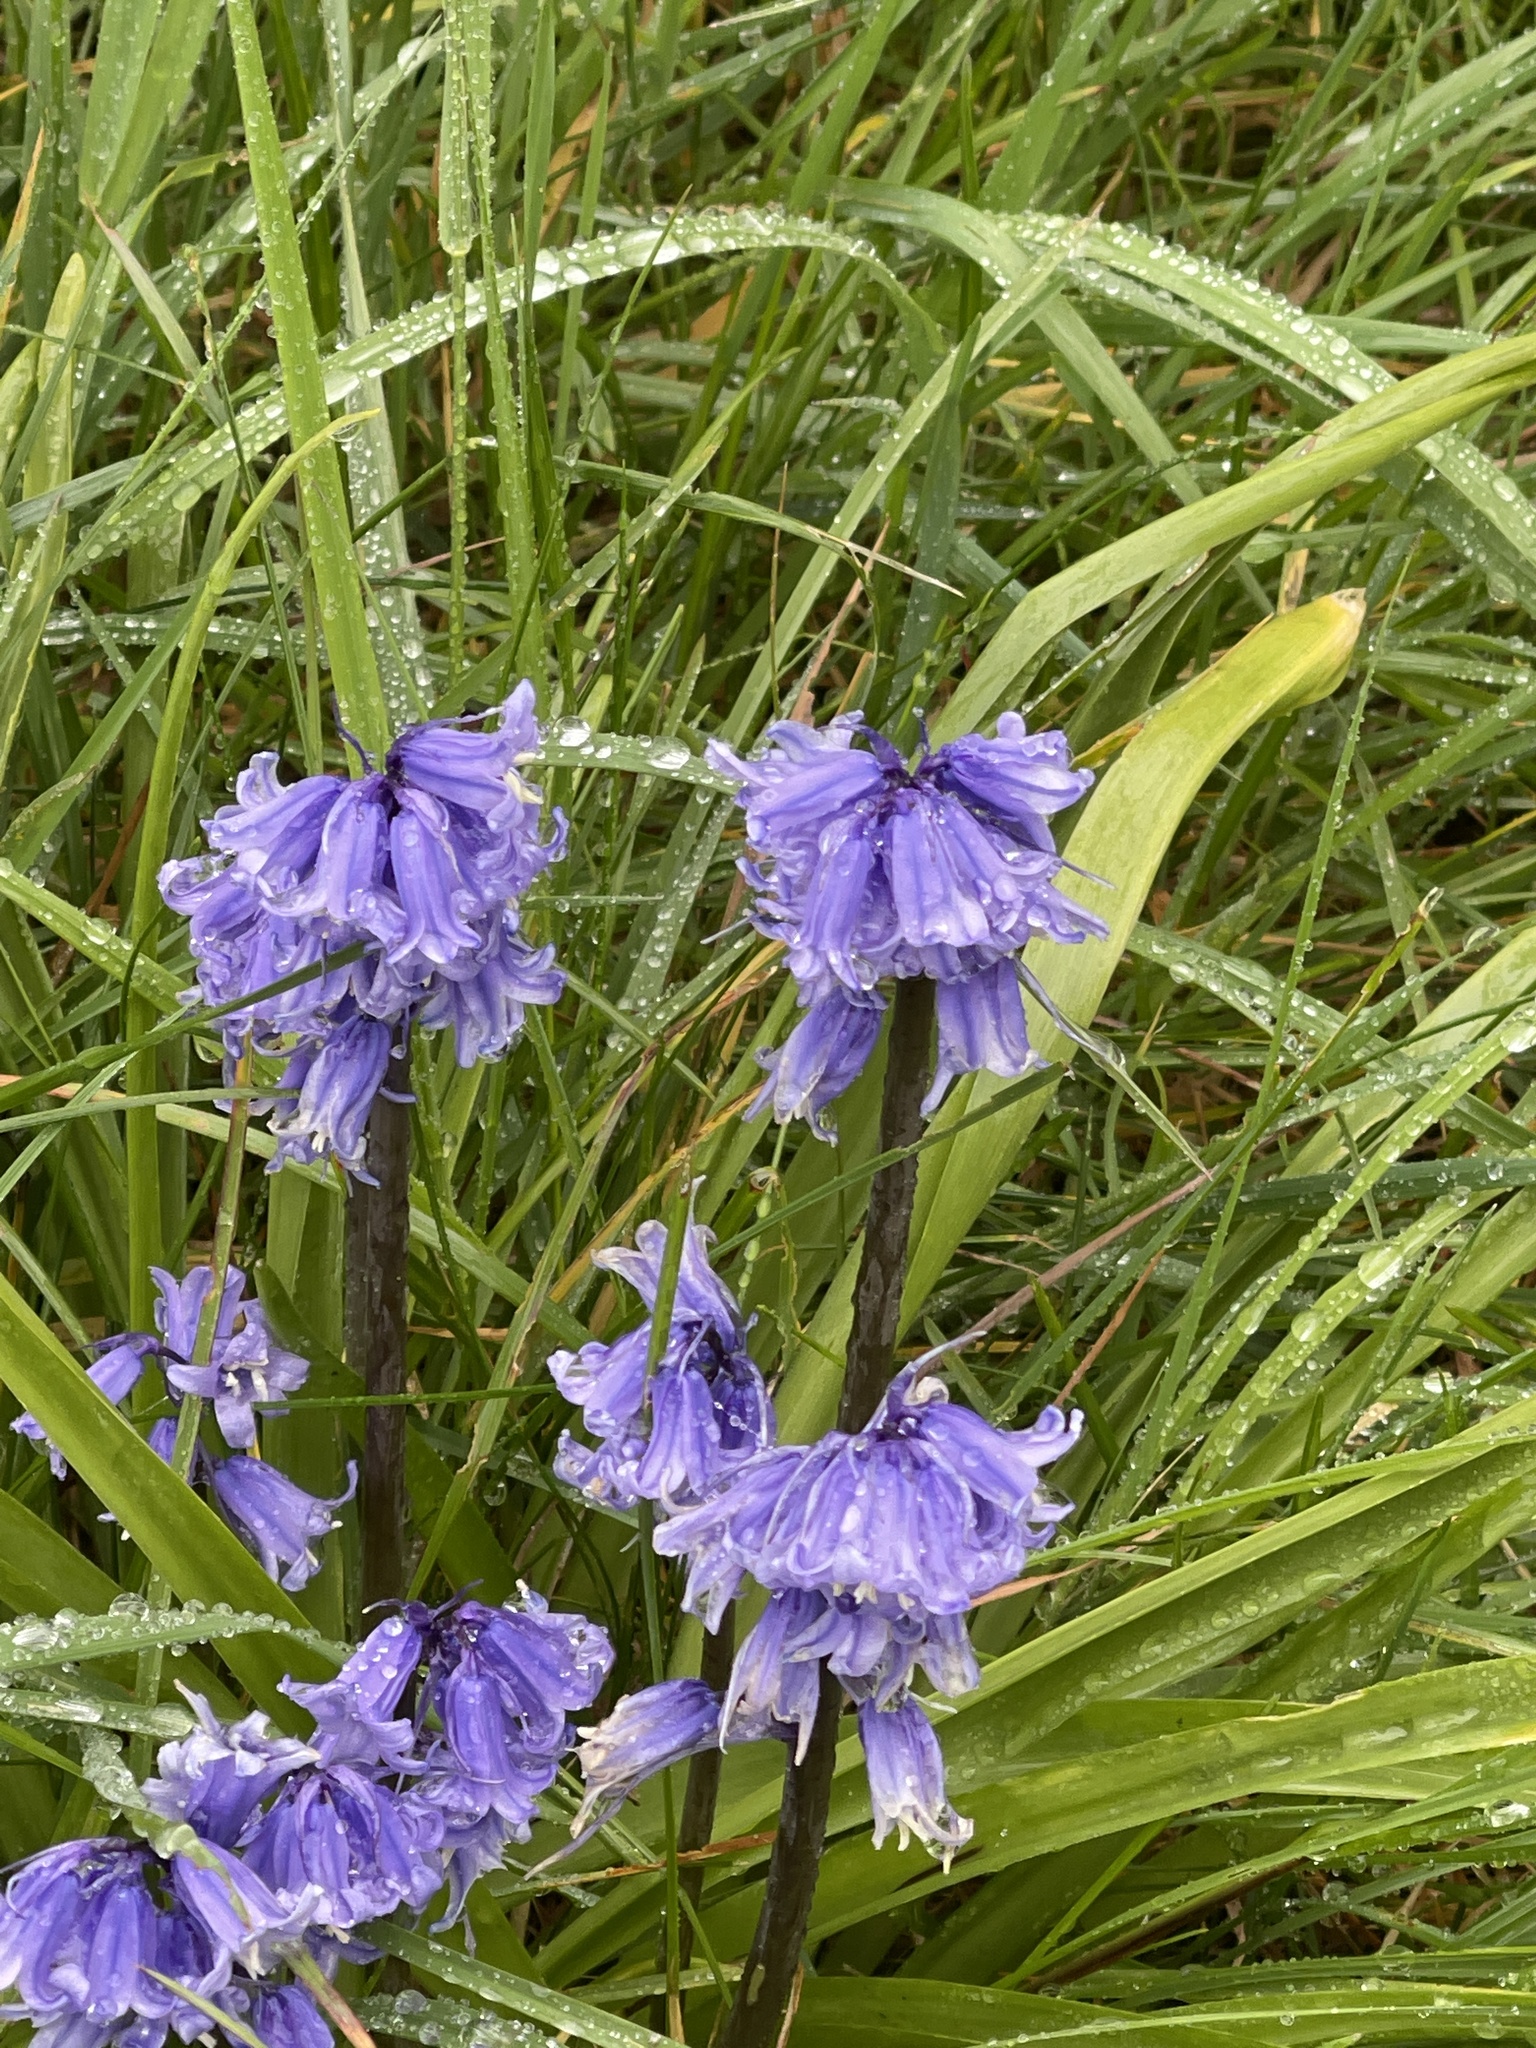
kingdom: Plantae
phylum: Tracheophyta
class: Liliopsida
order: Asparagales
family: Asparagaceae
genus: Hyacinthoides
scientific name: Hyacinthoides massartiana
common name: Hyacinthoides
